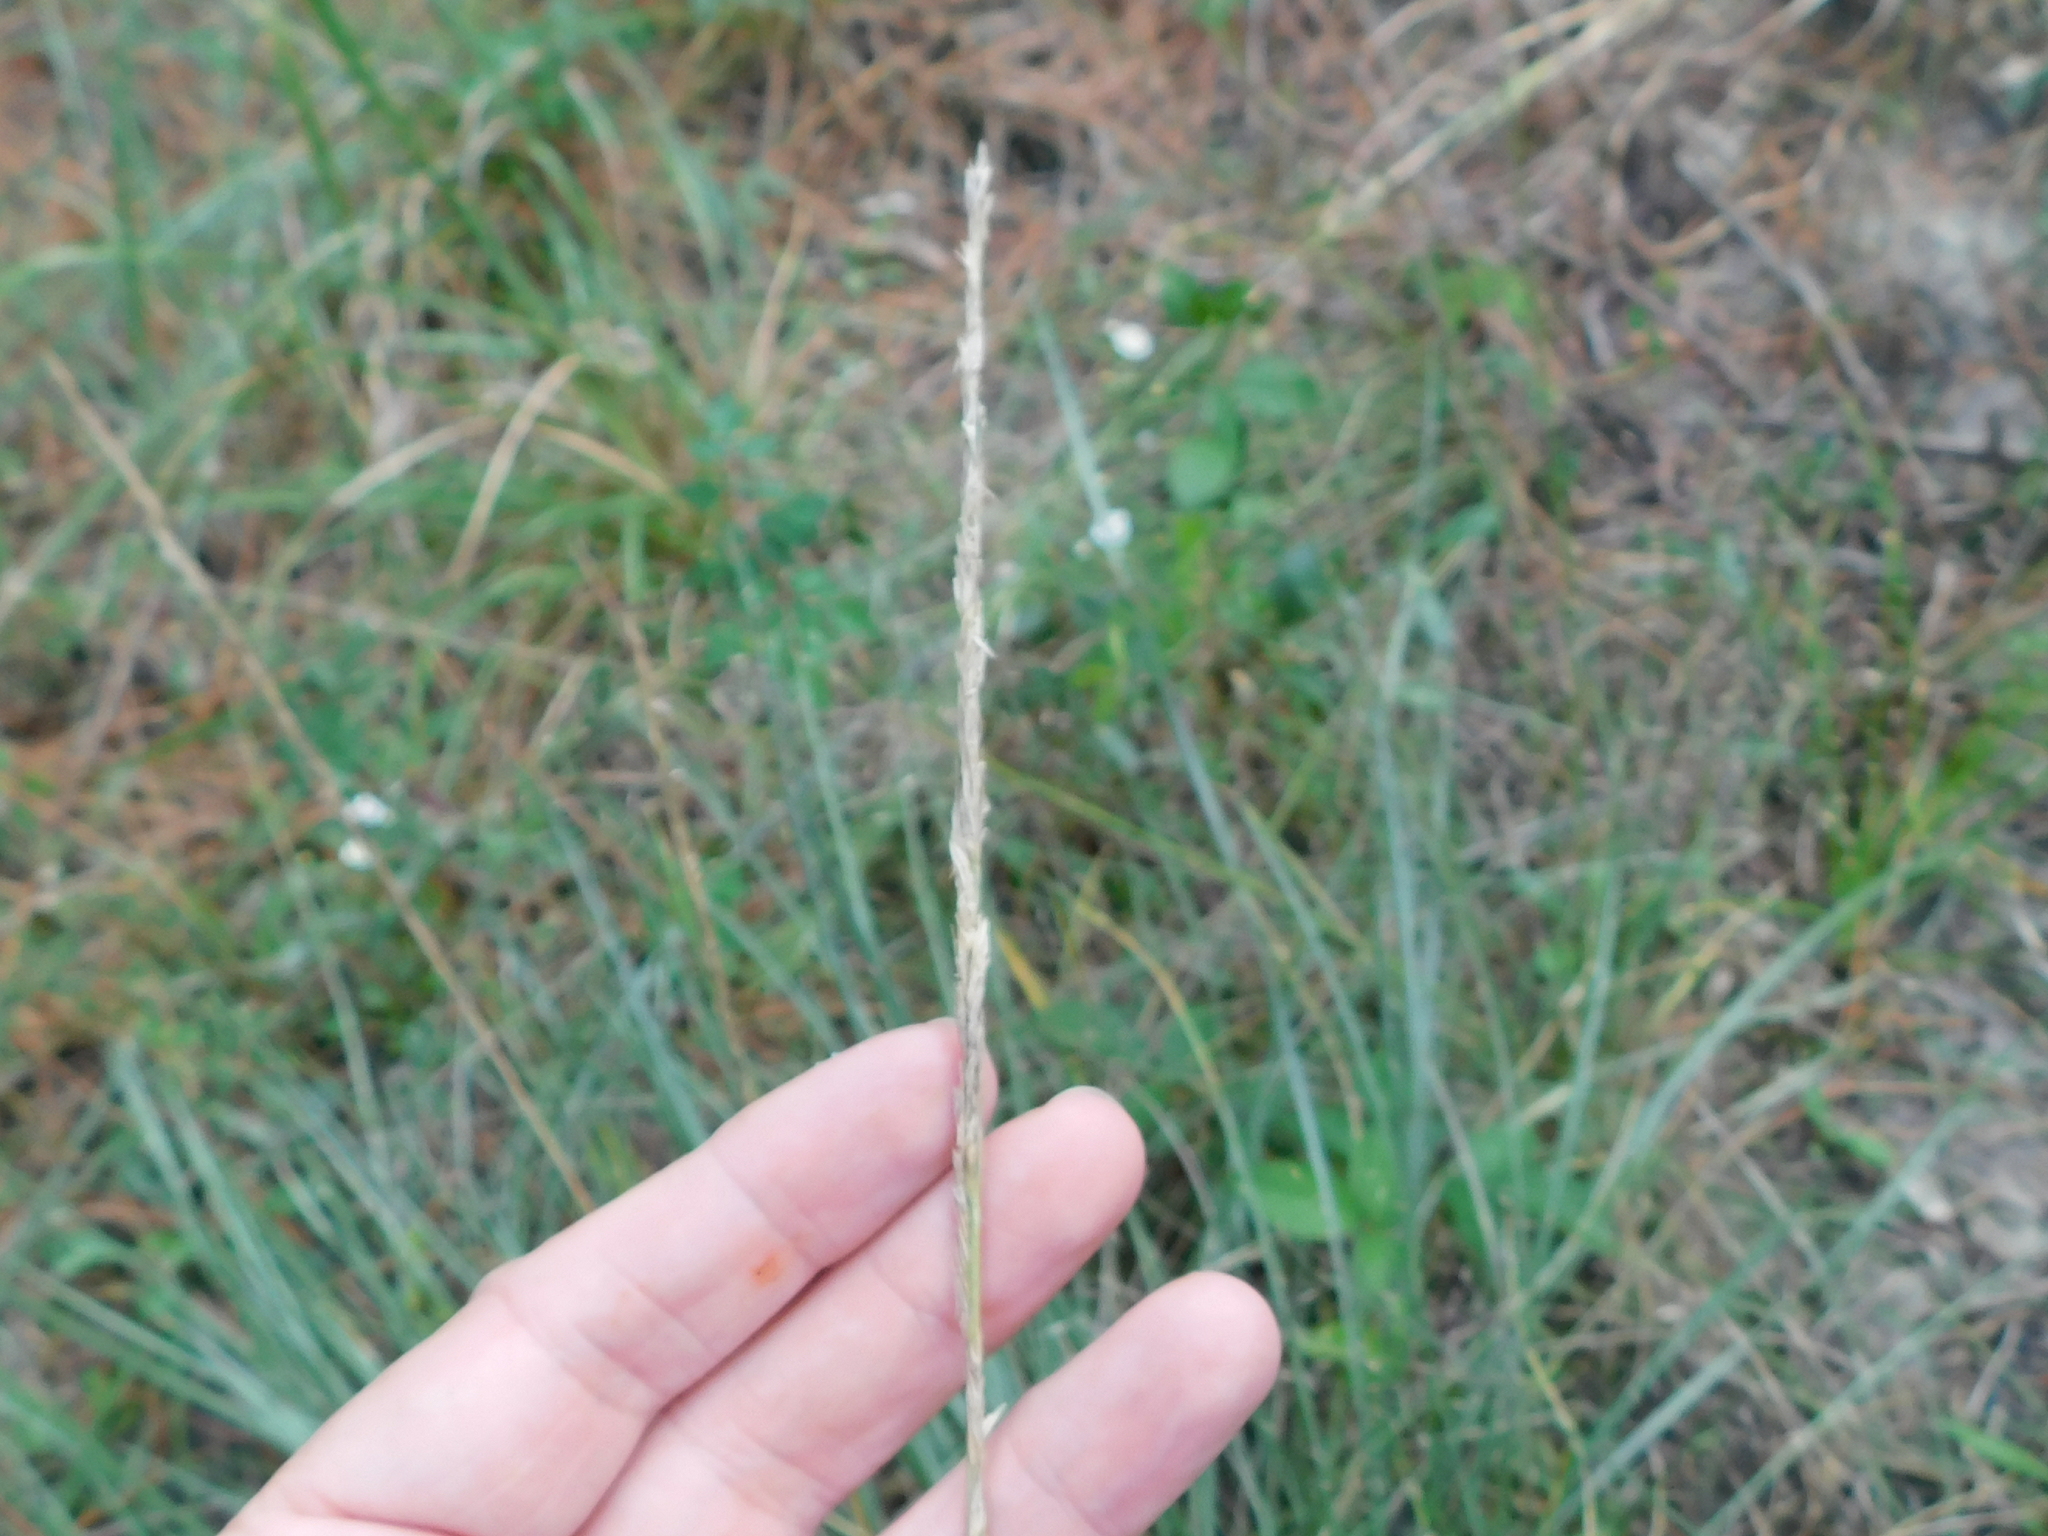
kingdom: Plantae
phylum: Tracheophyta
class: Liliopsida
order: Poales
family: Poaceae
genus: Sporobolus
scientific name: Sporobolus spartinae
